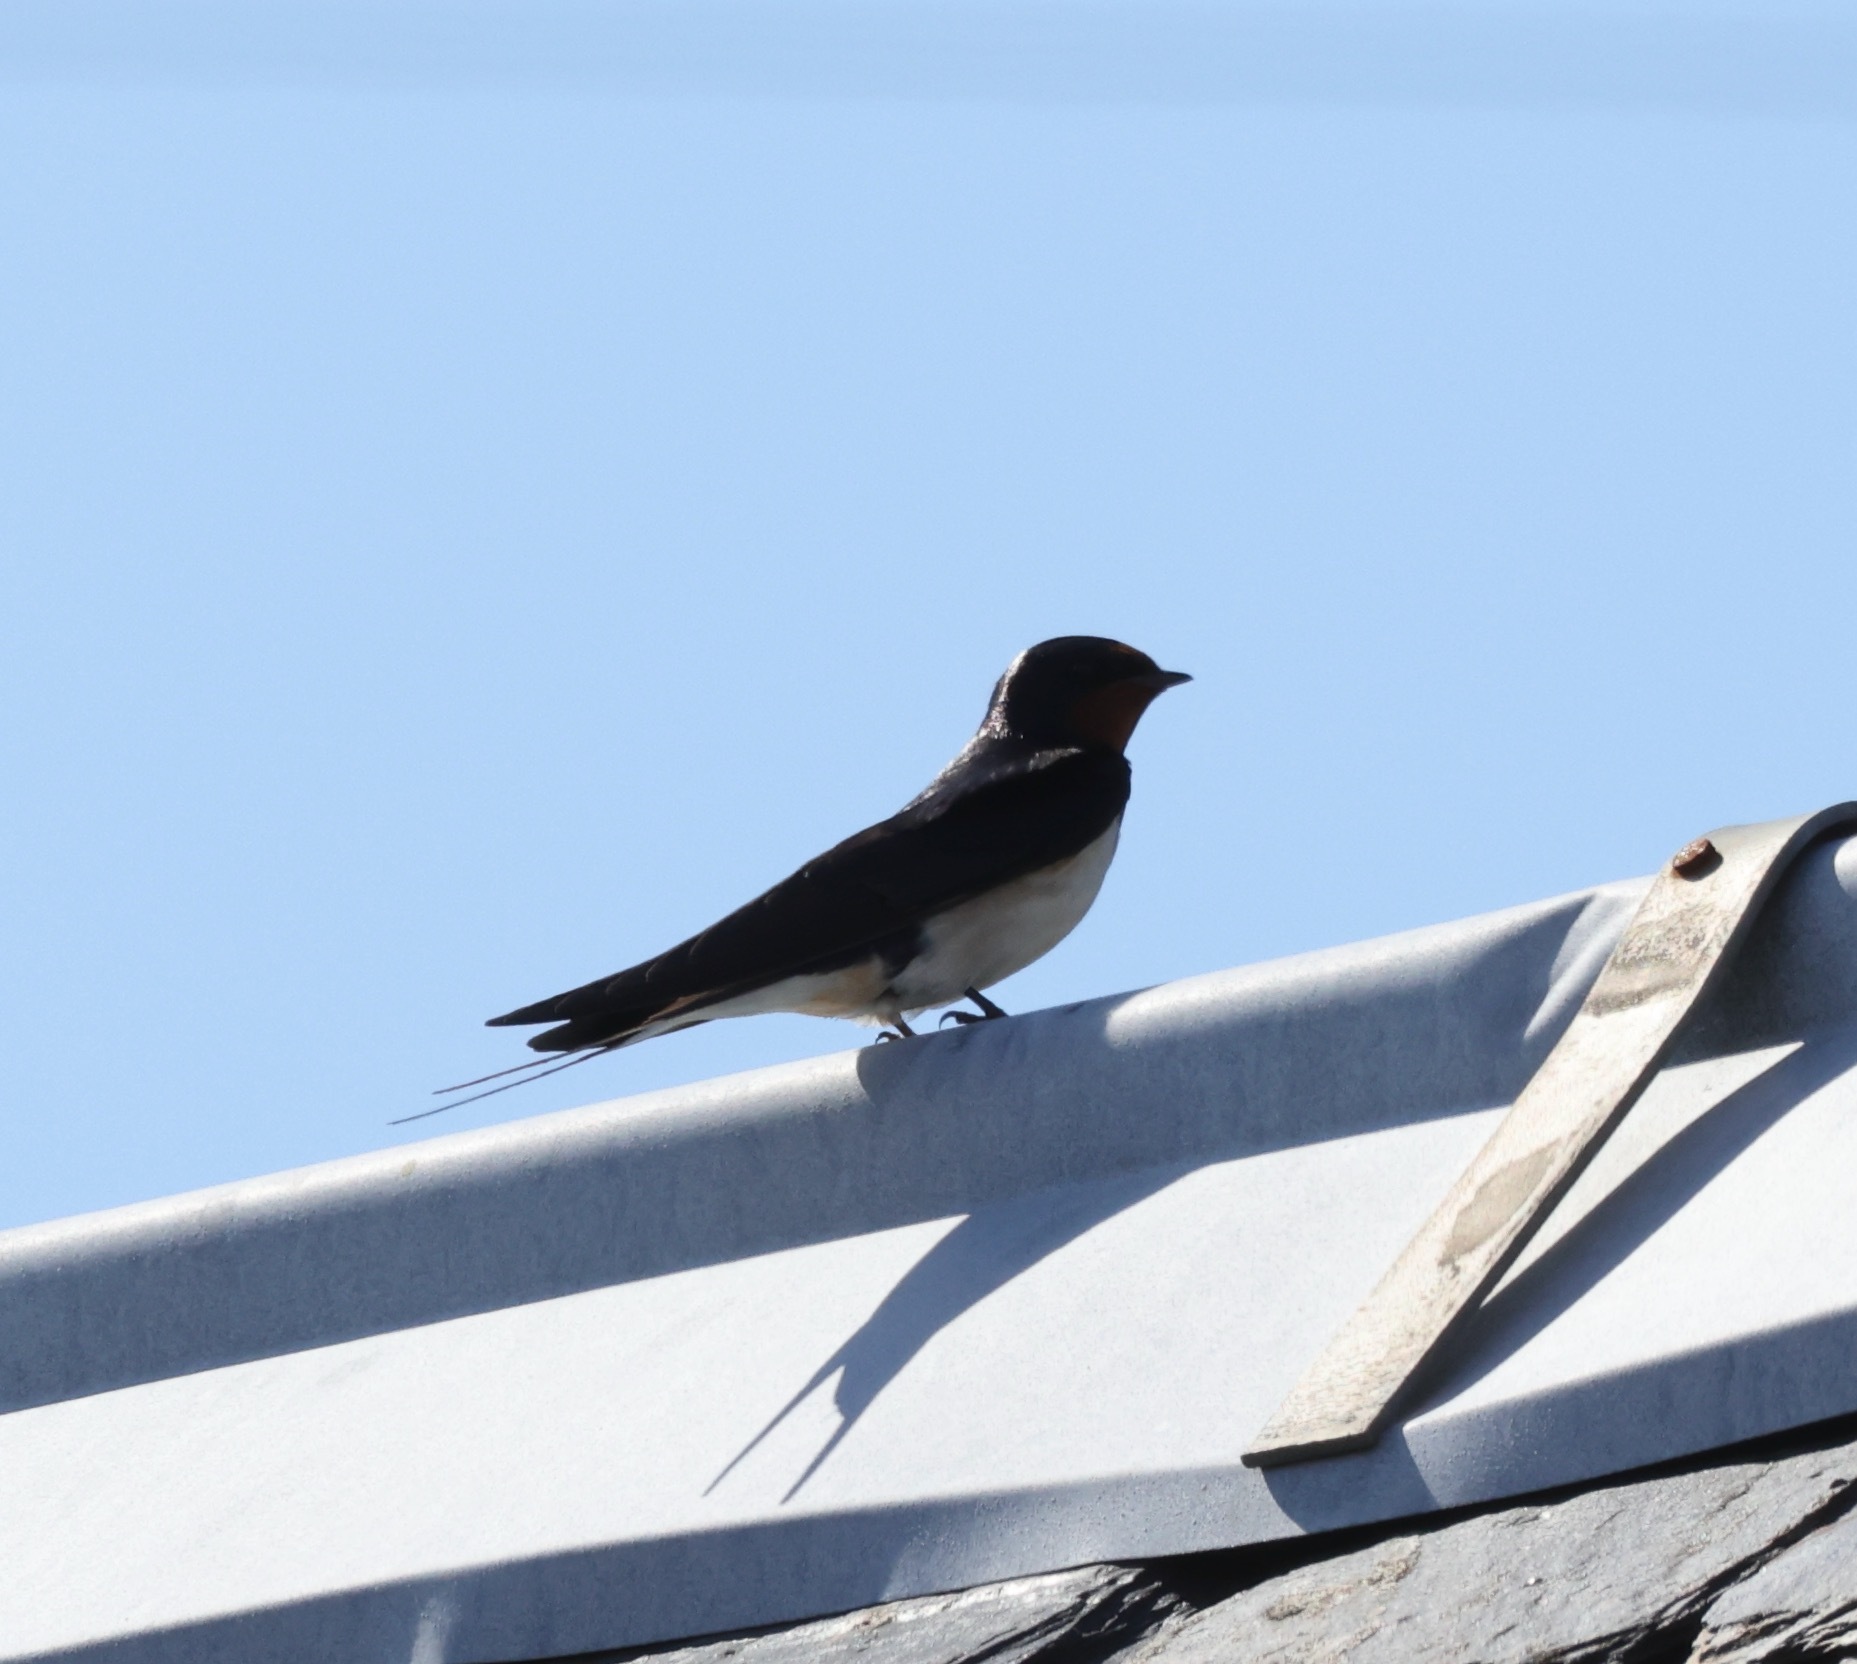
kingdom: Animalia
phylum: Chordata
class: Aves
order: Passeriformes
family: Hirundinidae
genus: Hirundo
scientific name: Hirundo rustica
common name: Barn swallow
